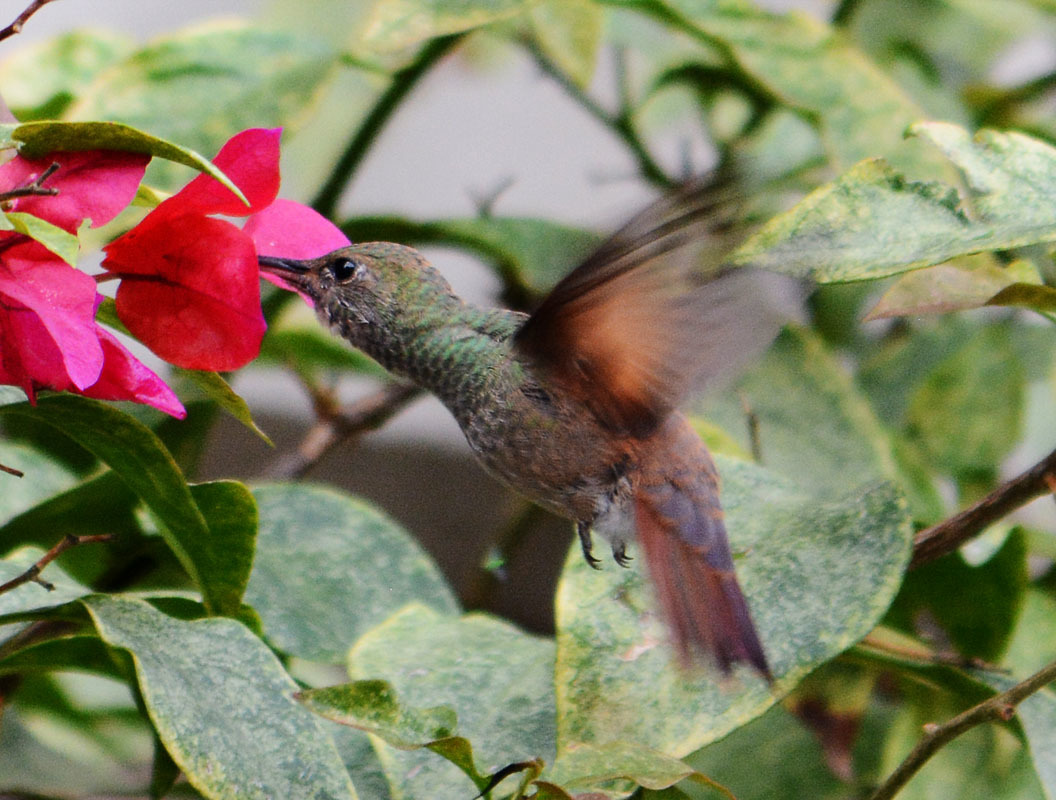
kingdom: Animalia
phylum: Chordata
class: Aves
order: Apodiformes
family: Trochilidae
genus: Saucerottia
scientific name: Saucerottia beryllina
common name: Berylline hummingbird
